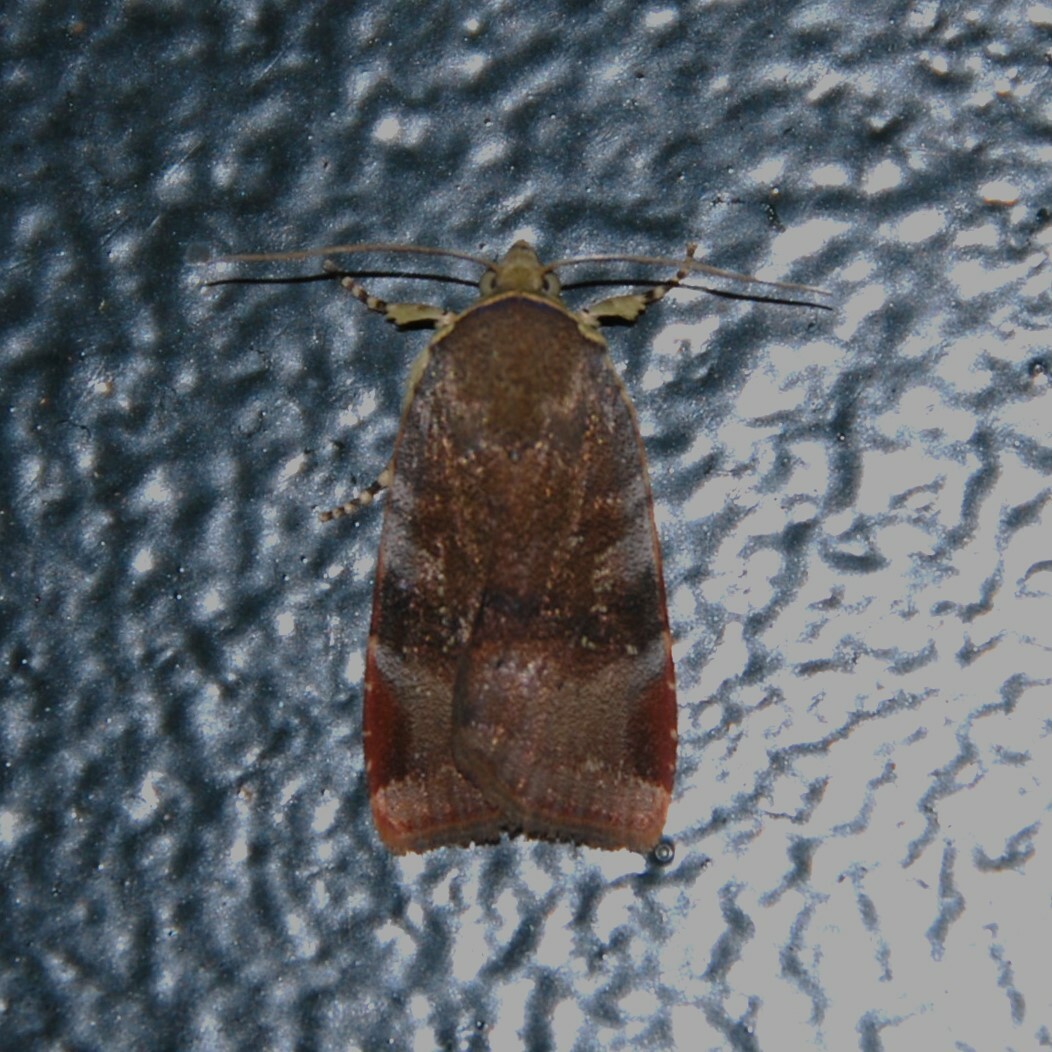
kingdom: Animalia
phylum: Arthropoda
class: Insecta
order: Lepidoptera
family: Noctuidae
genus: Noctua
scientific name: Noctua janthina
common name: Langmaid's yellow underwing
